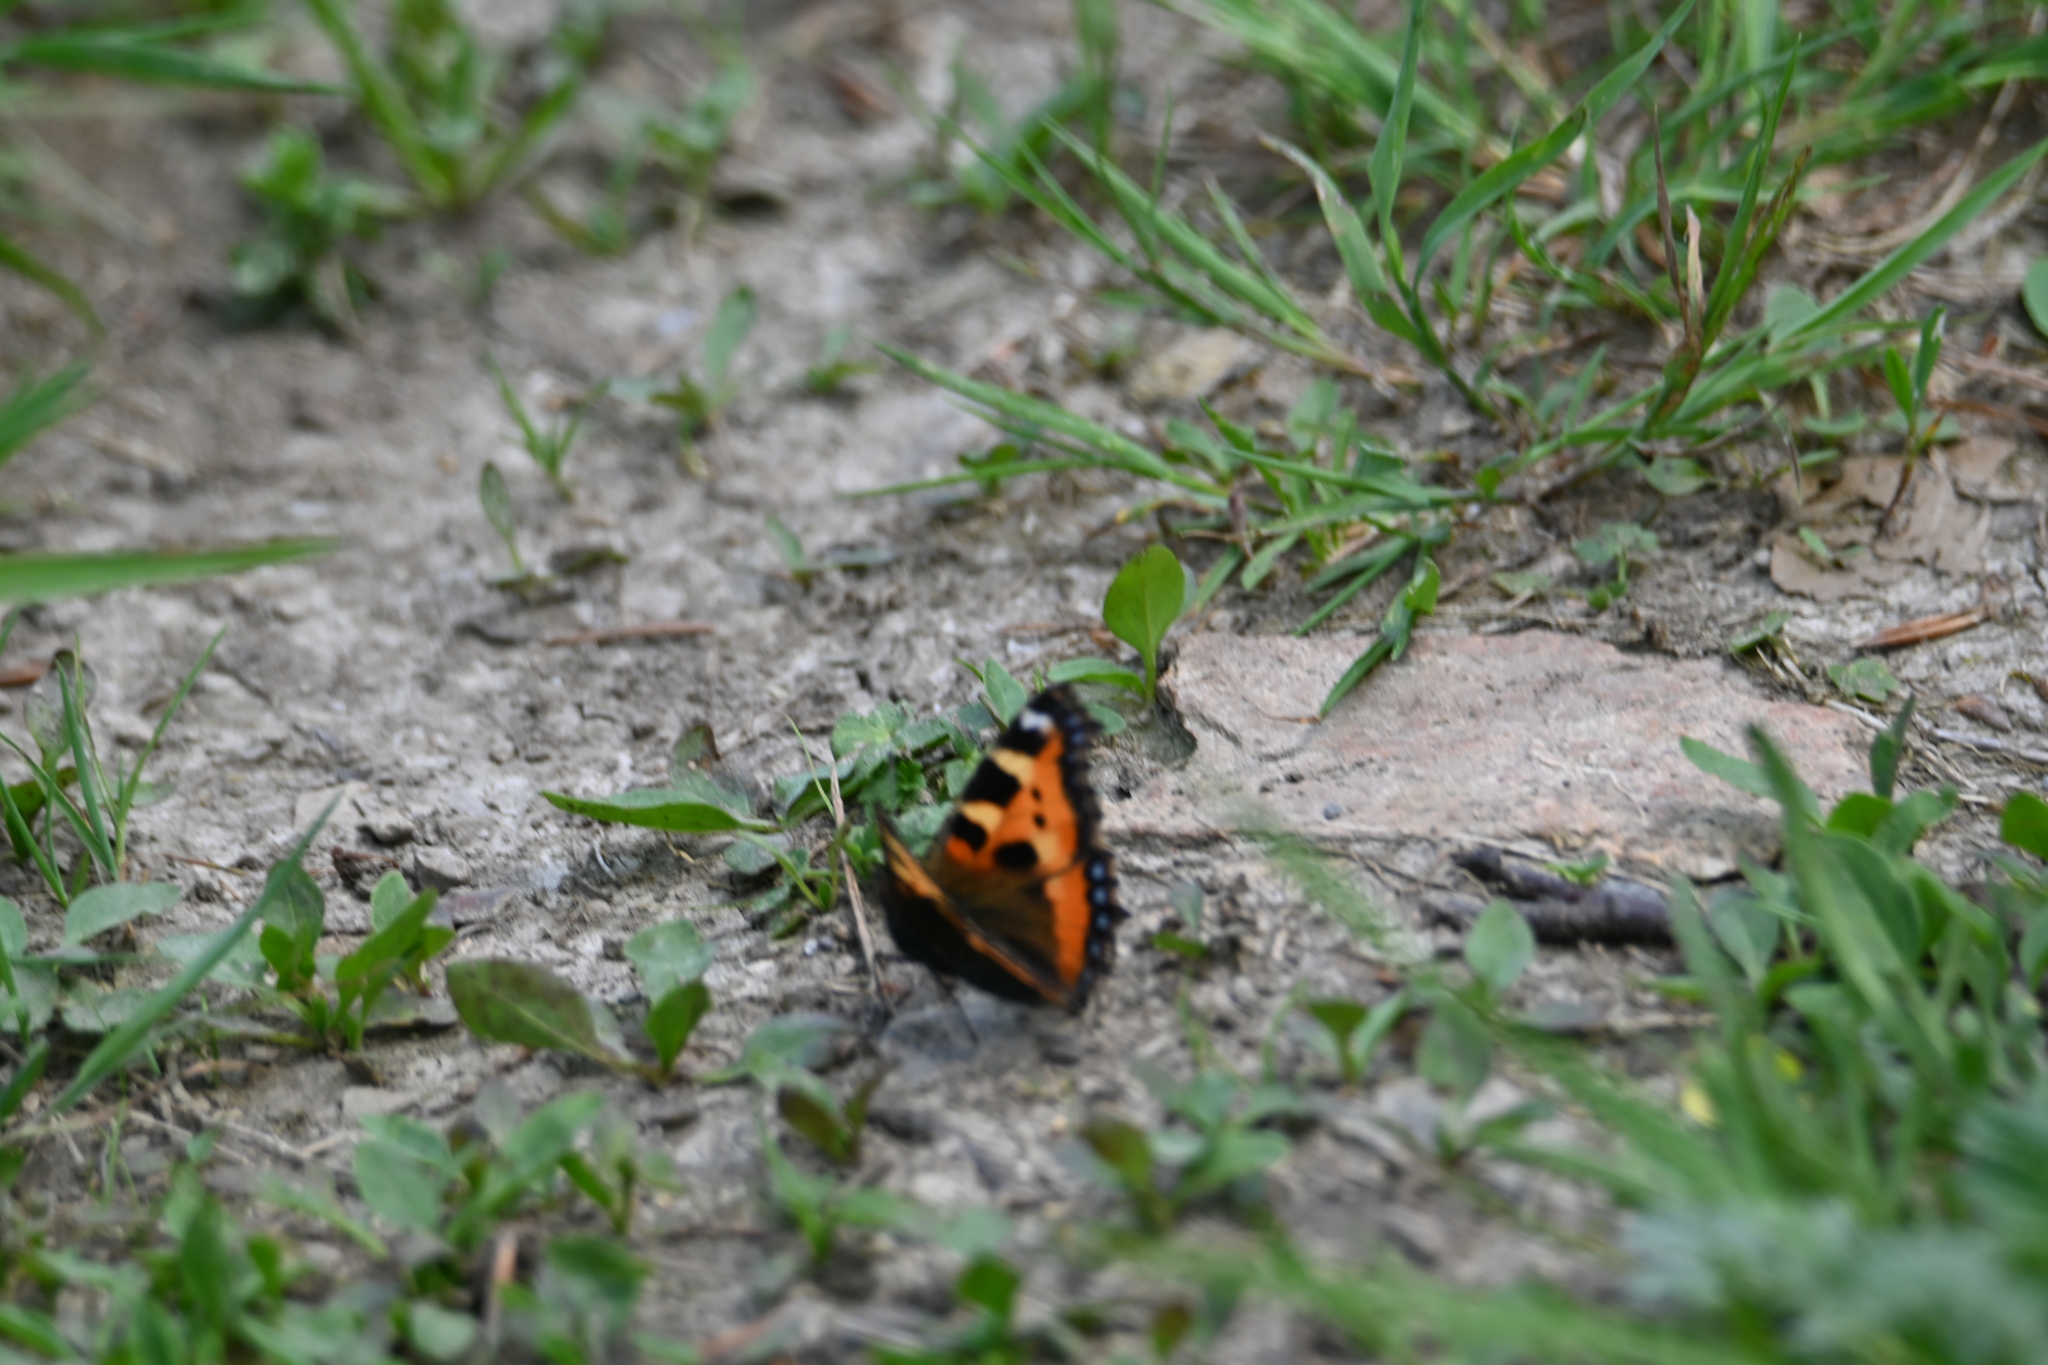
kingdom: Animalia
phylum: Arthropoda
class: Insecta
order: Lepidoptera
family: Nymphalidae
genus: Aglais
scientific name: Aglais urticae
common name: Small tortoiseshell
